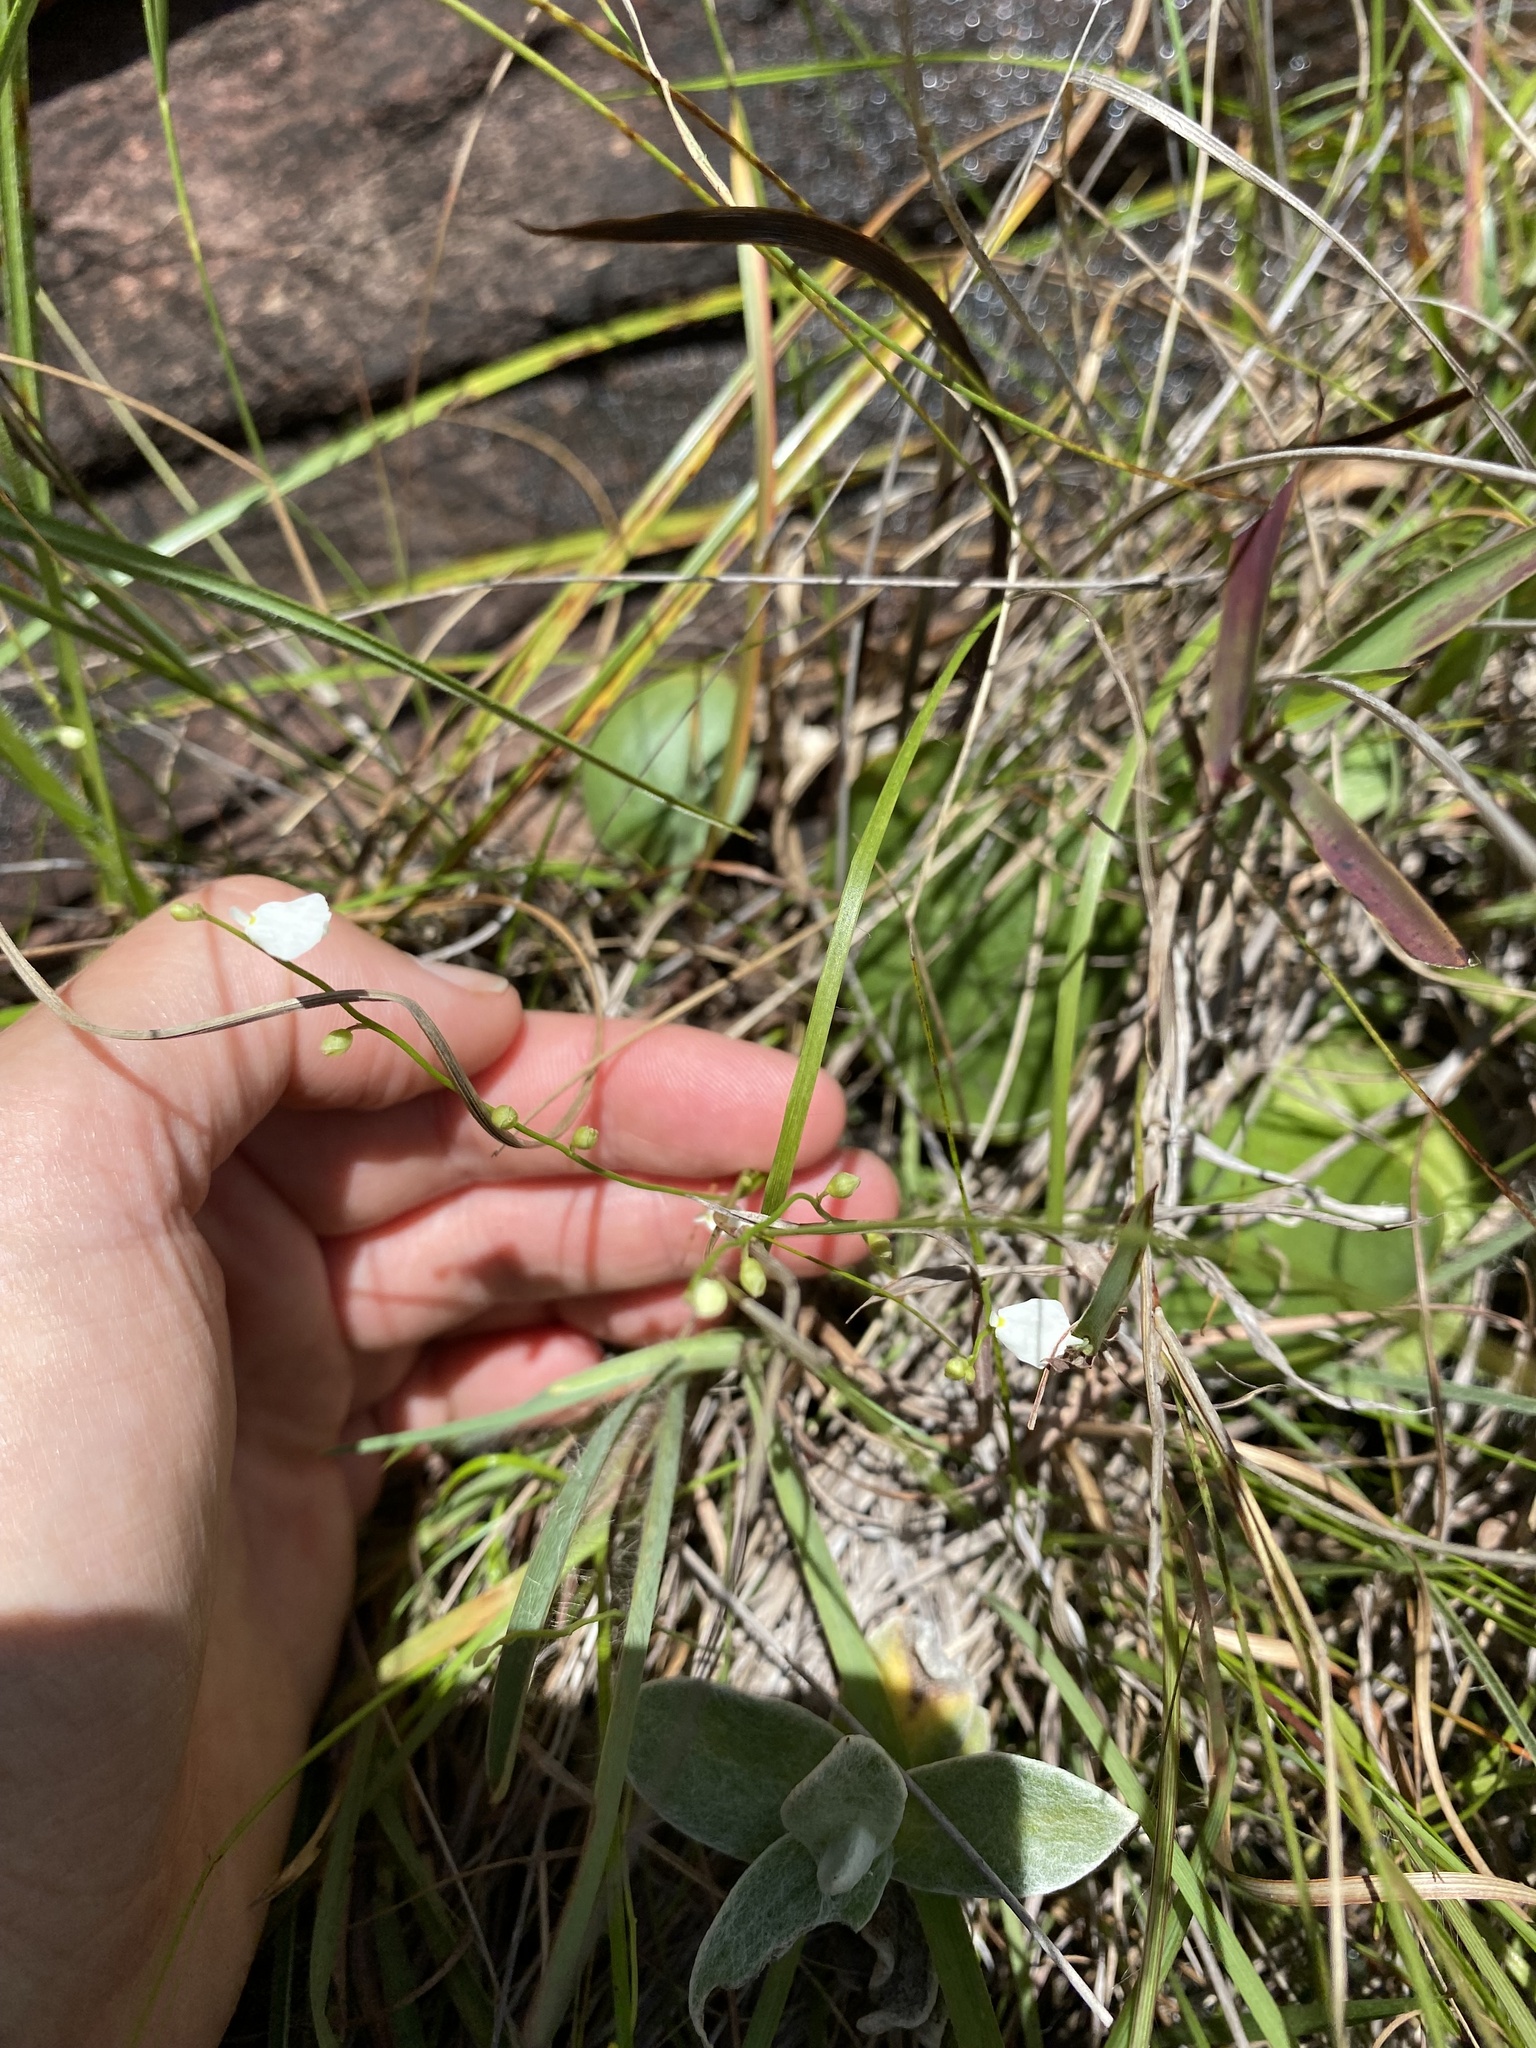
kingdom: Plantae
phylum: Tracheophyta
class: Magnoliopsida
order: Lamiales
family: Lentibulariaceae
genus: Utricularia
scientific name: Utricularia livida
